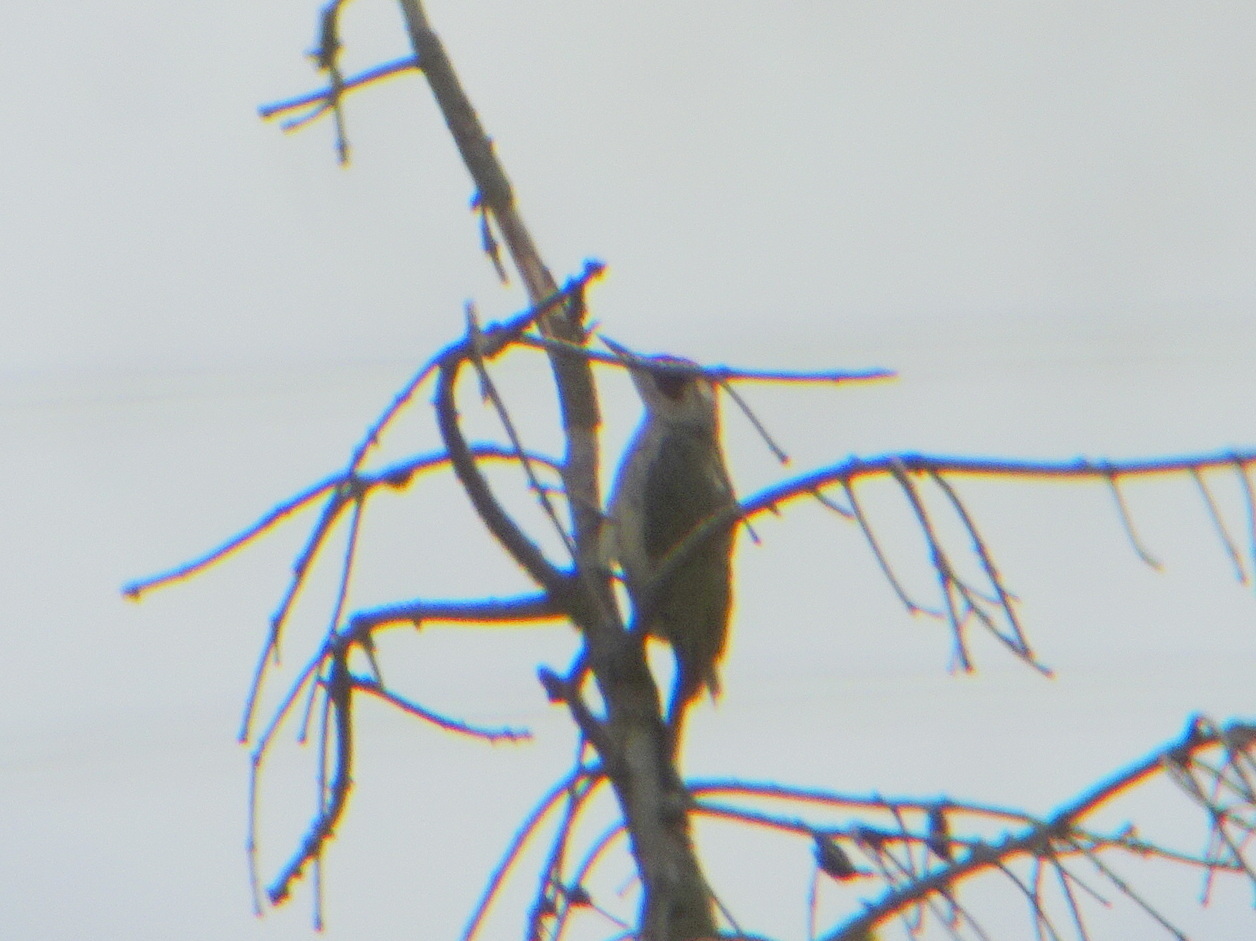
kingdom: Animalia
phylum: Chordata
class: Aves
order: Piciformes
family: Picidae
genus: Picus
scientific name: Picus viridis
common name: European green woodpecker
